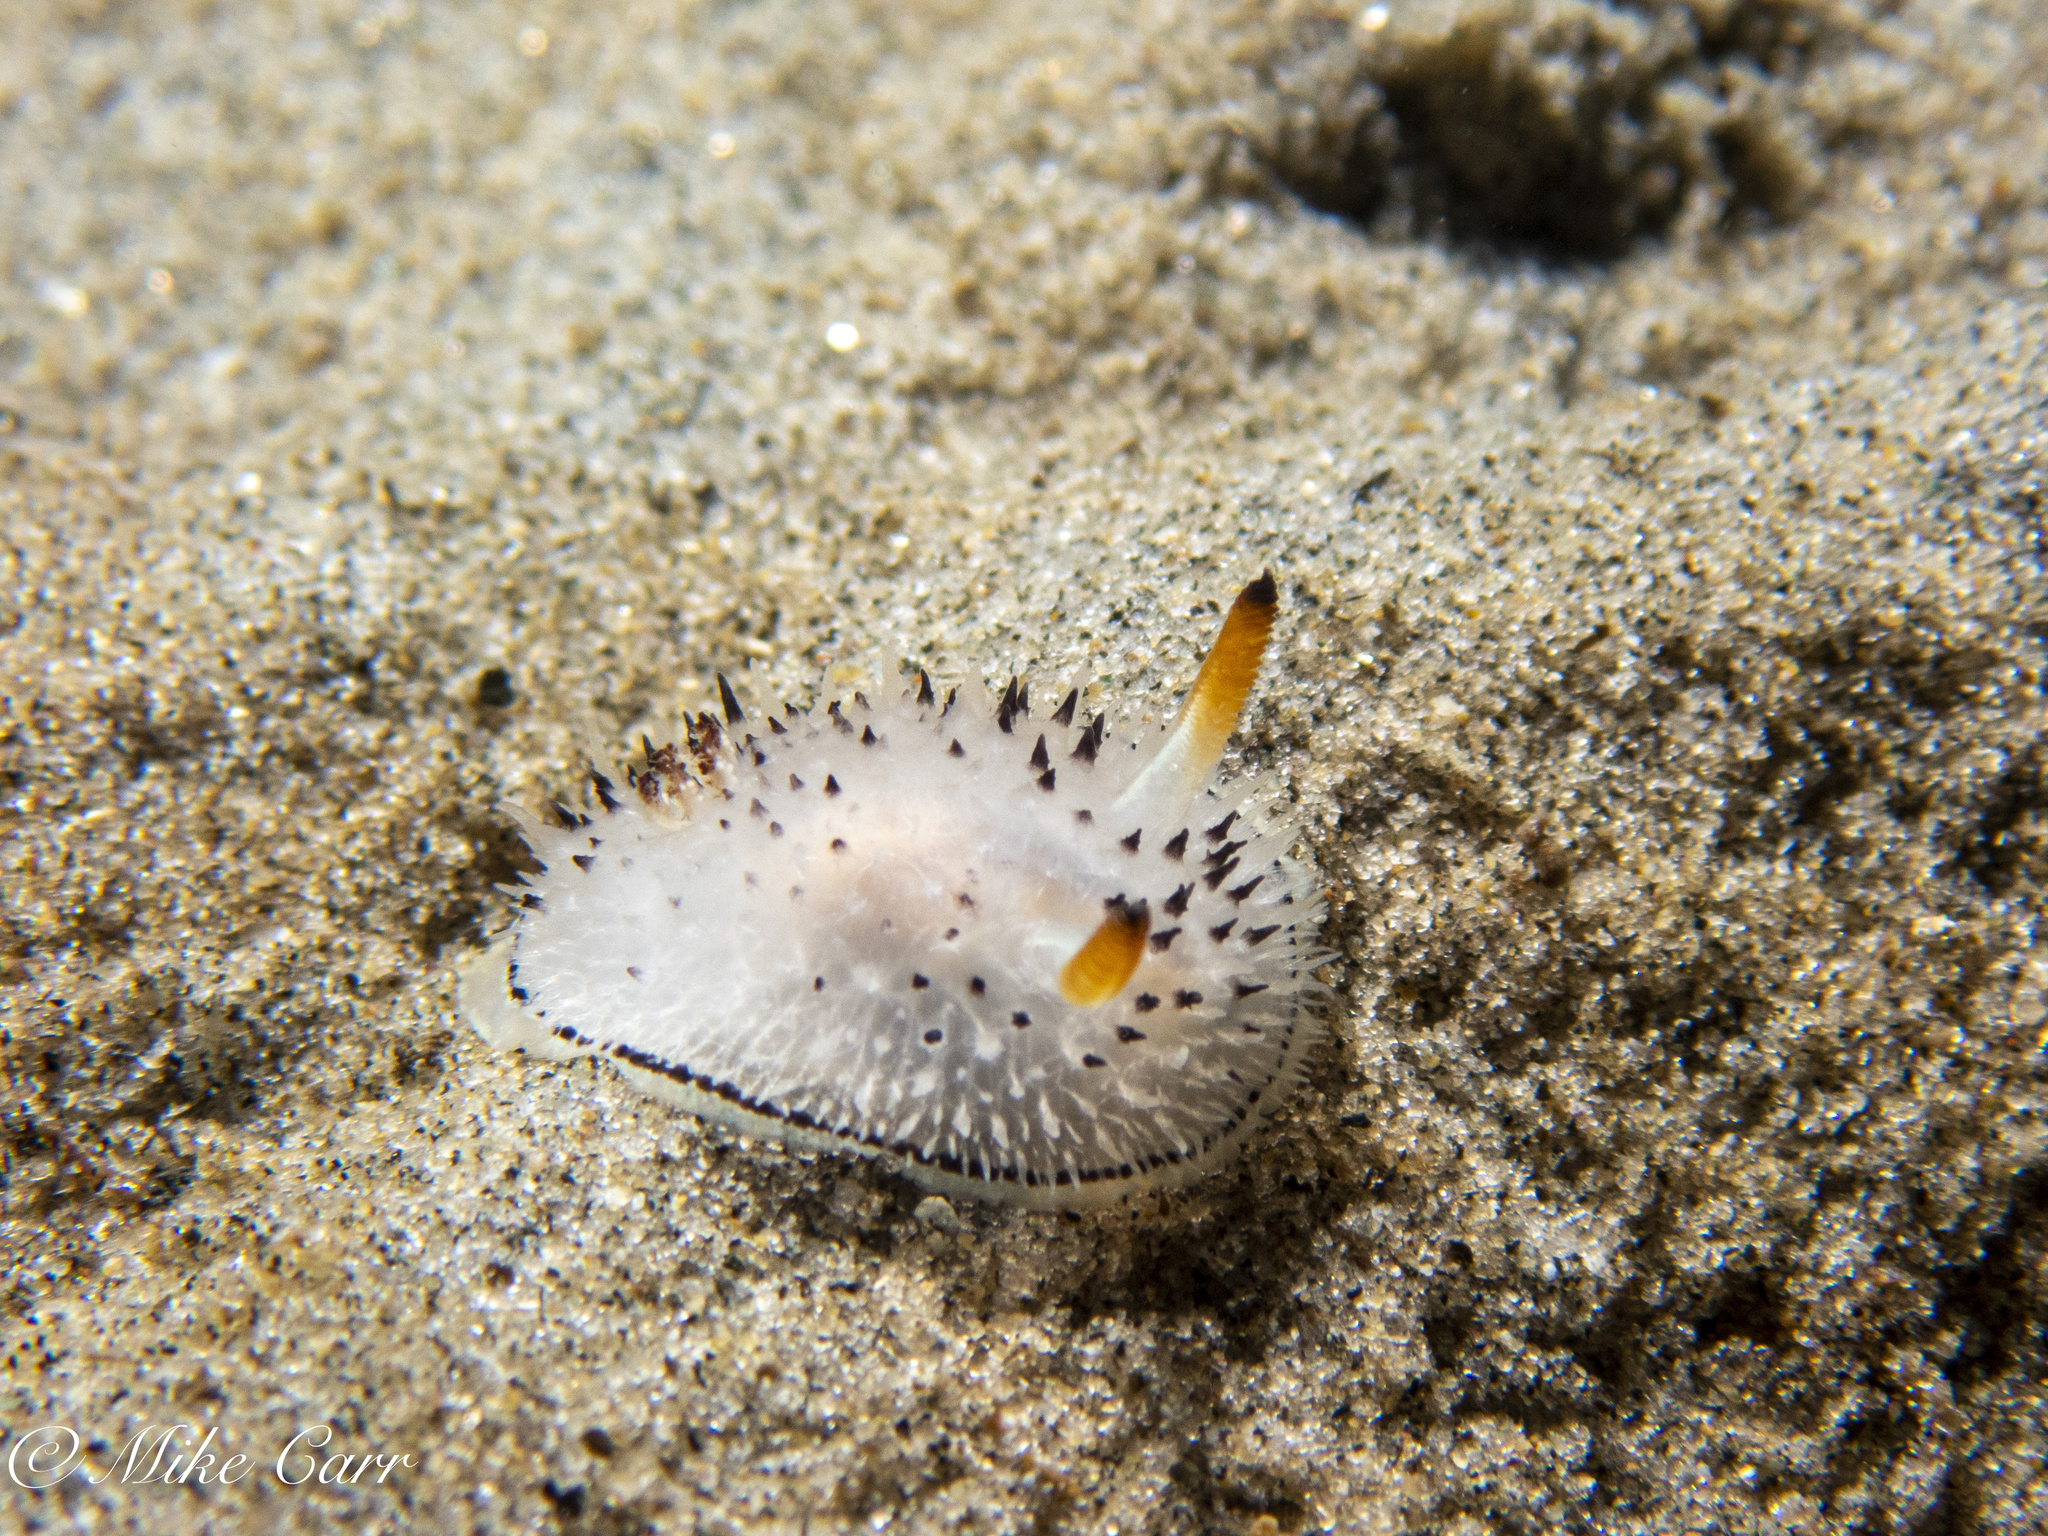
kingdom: Animalia
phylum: Mollusca
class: Gastropoda
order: Nudibranchia
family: Onchidorididae
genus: Acanthodoris
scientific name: Acanthodoris rhodoceras
